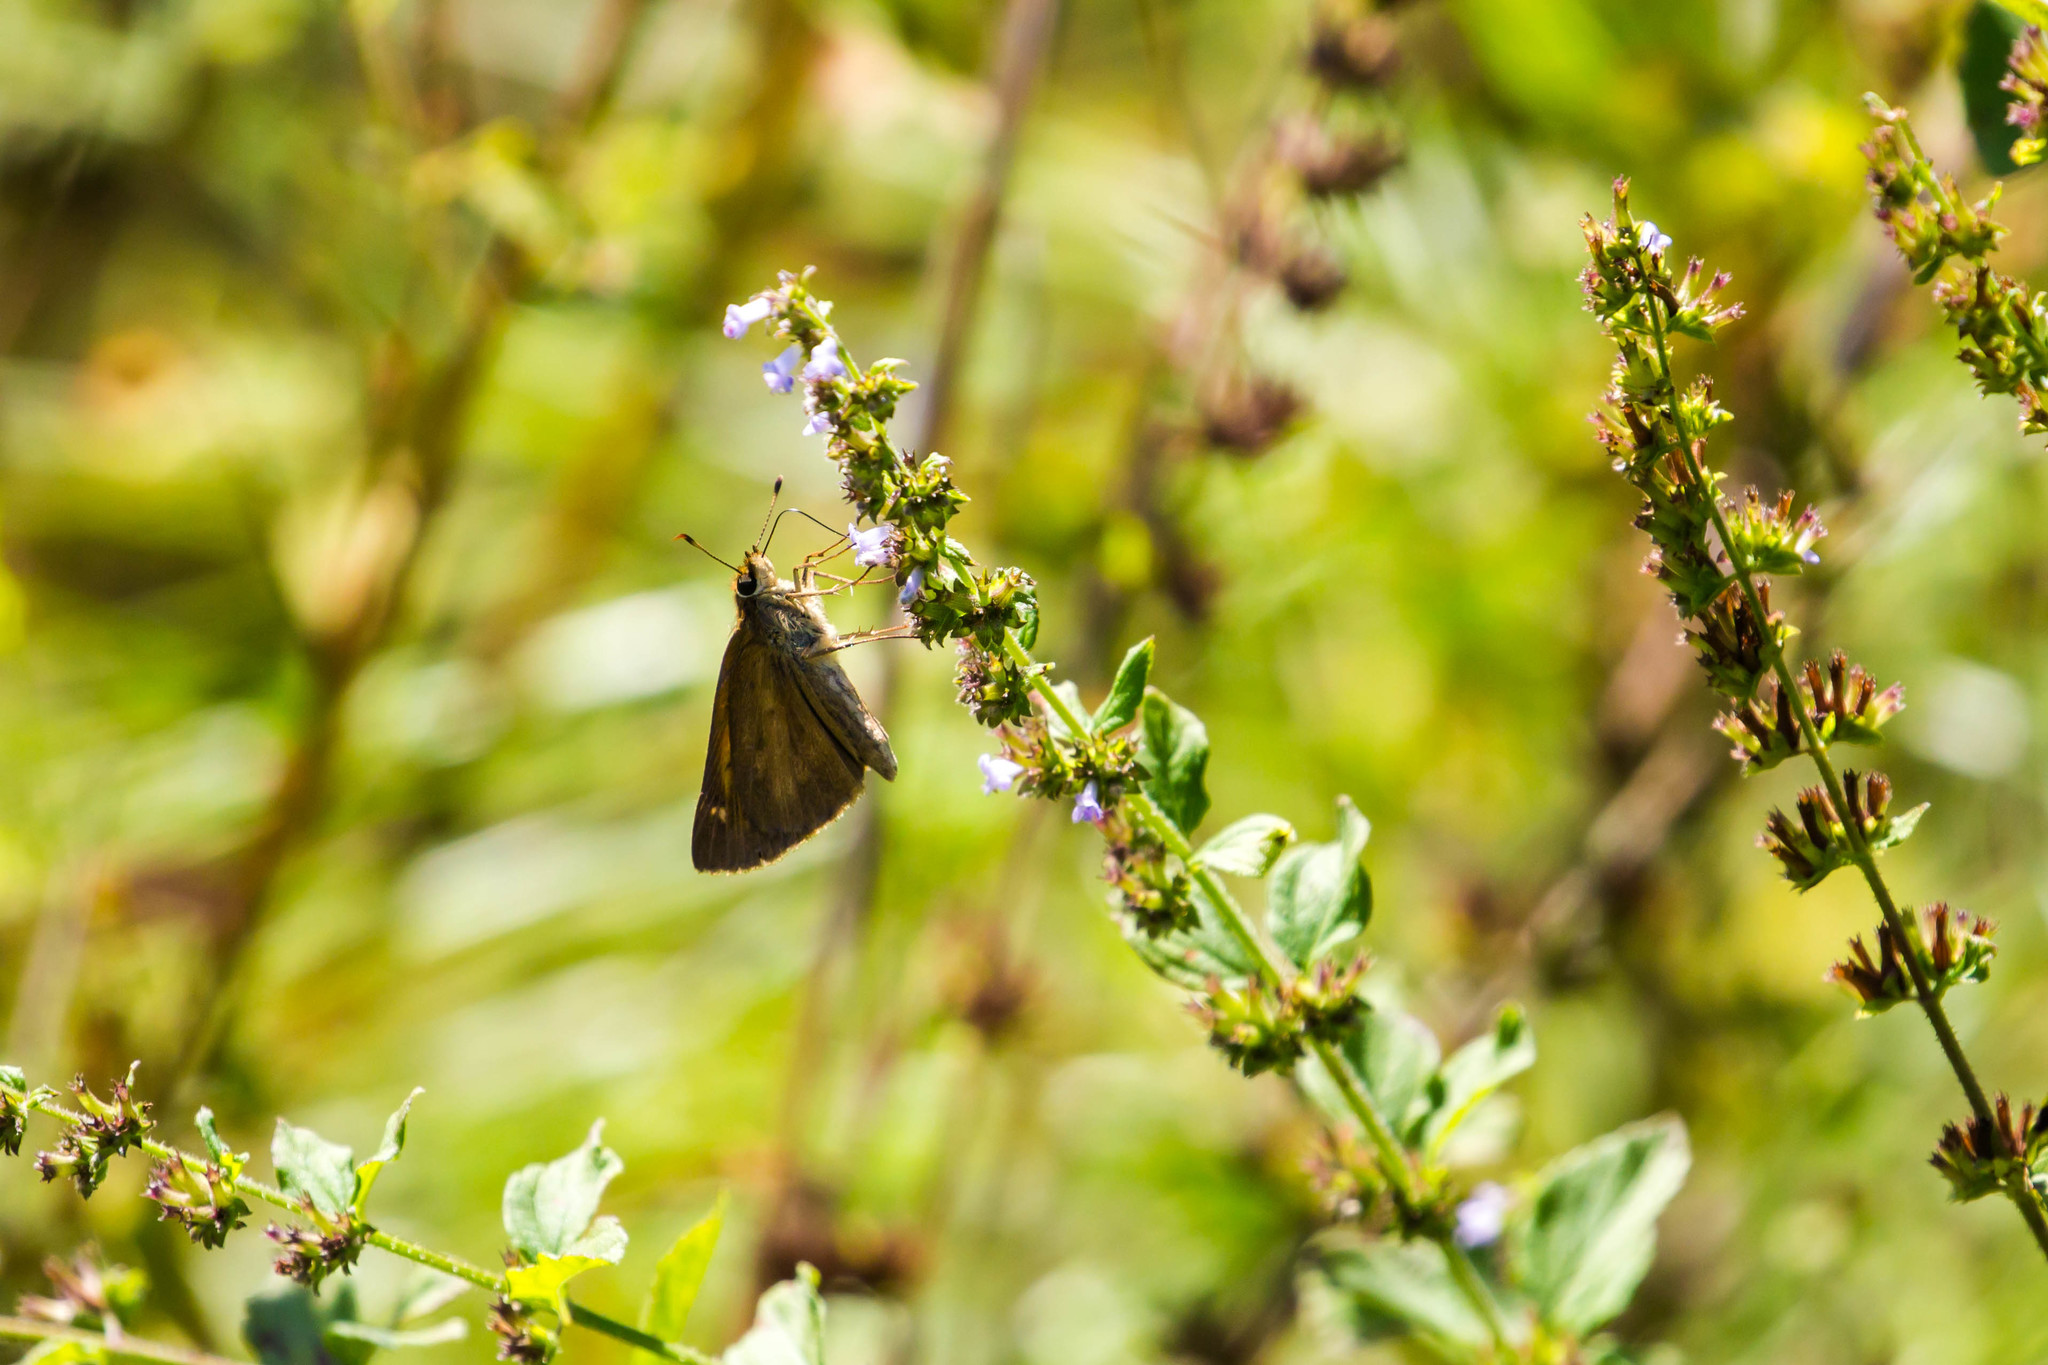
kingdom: Animalia
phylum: Arthropoda
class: Insecta
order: Lepidoptera
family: Hesperiidae
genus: Poanes
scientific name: Poanes viator
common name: Broad-winged skipper
